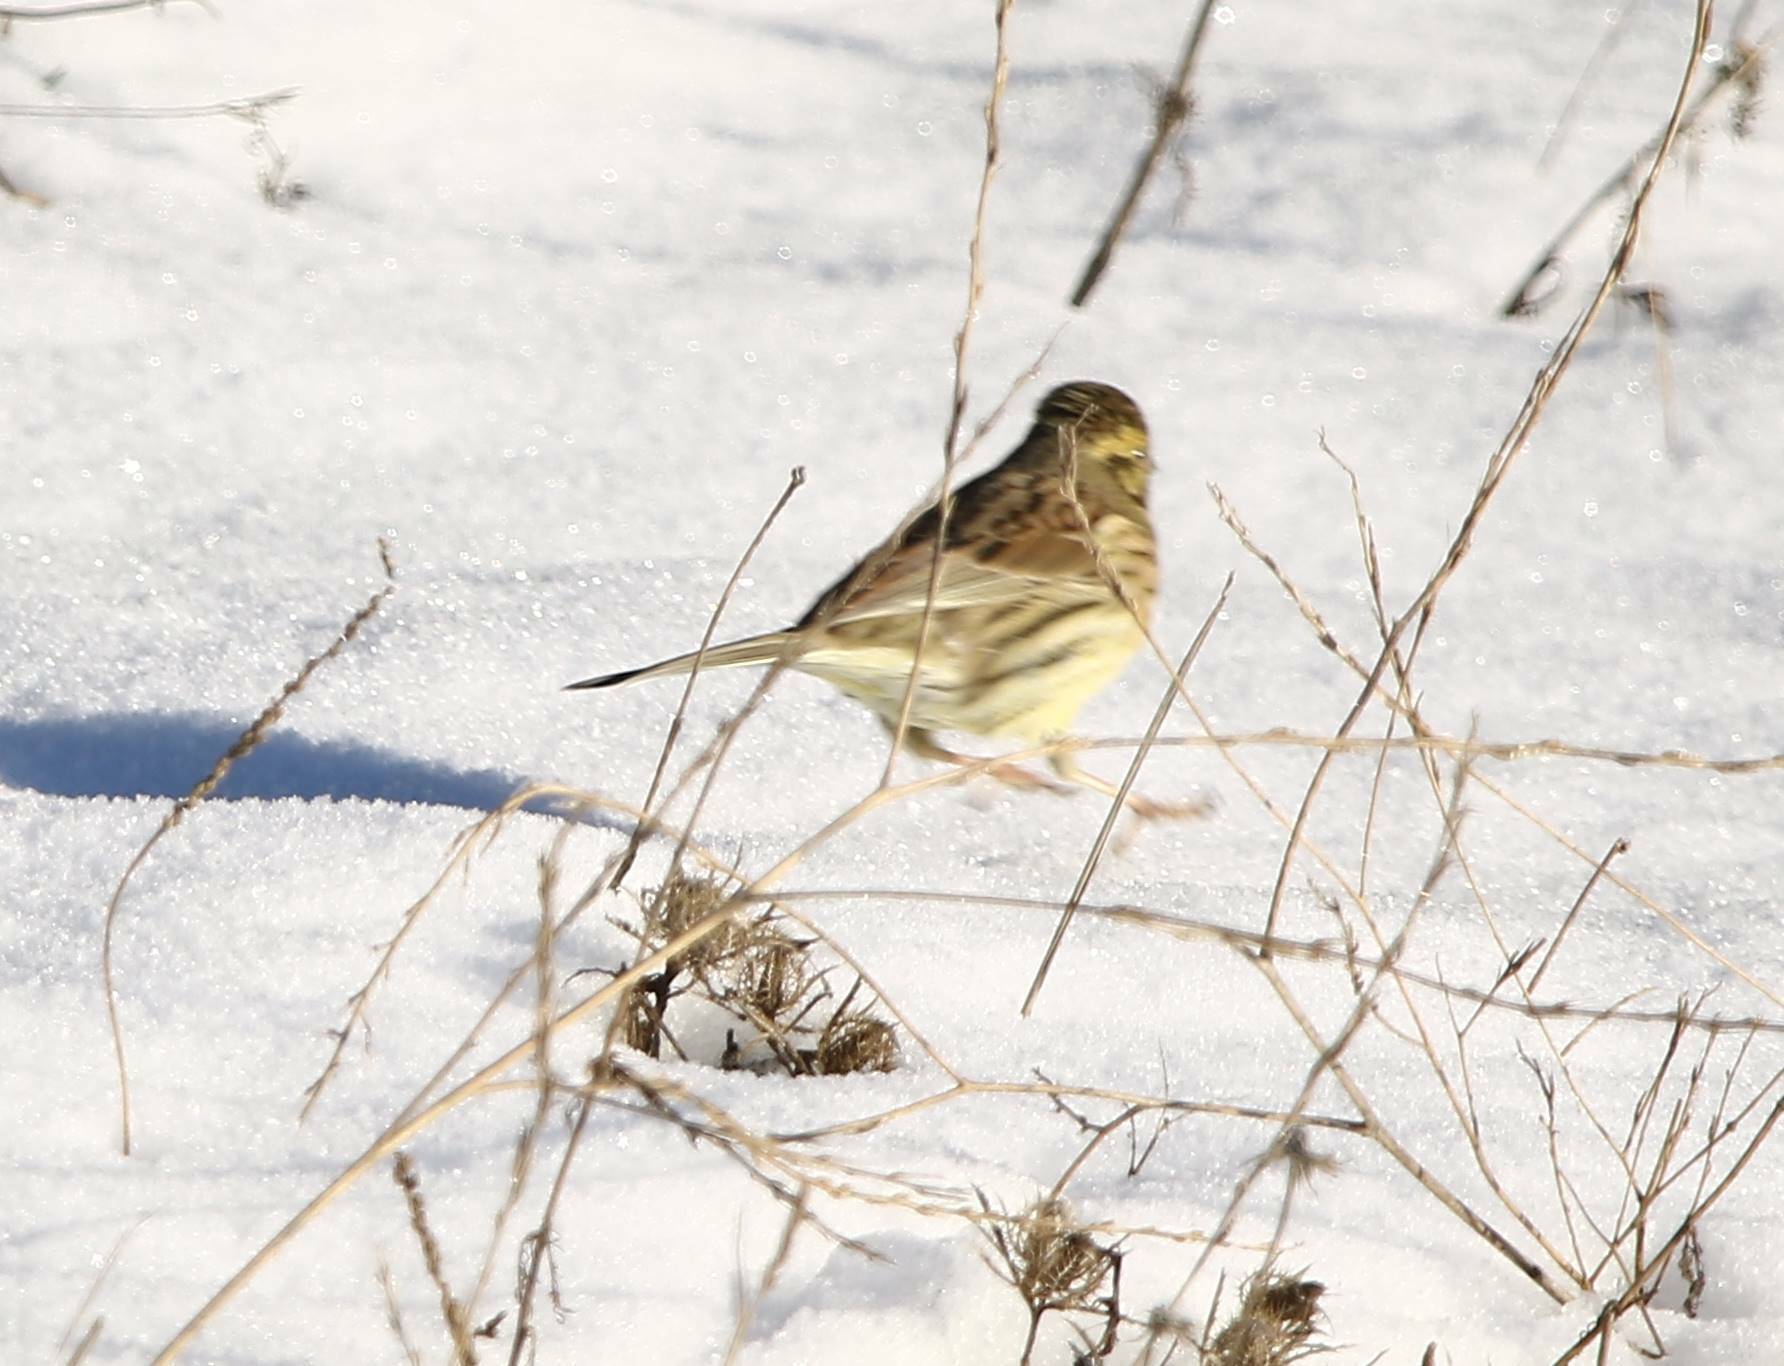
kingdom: Animalia
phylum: Chordata
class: Aves
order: Passeriformes
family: Emberizidae
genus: Emberiza
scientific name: Emberiza cirlus
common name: Cirl bunting
